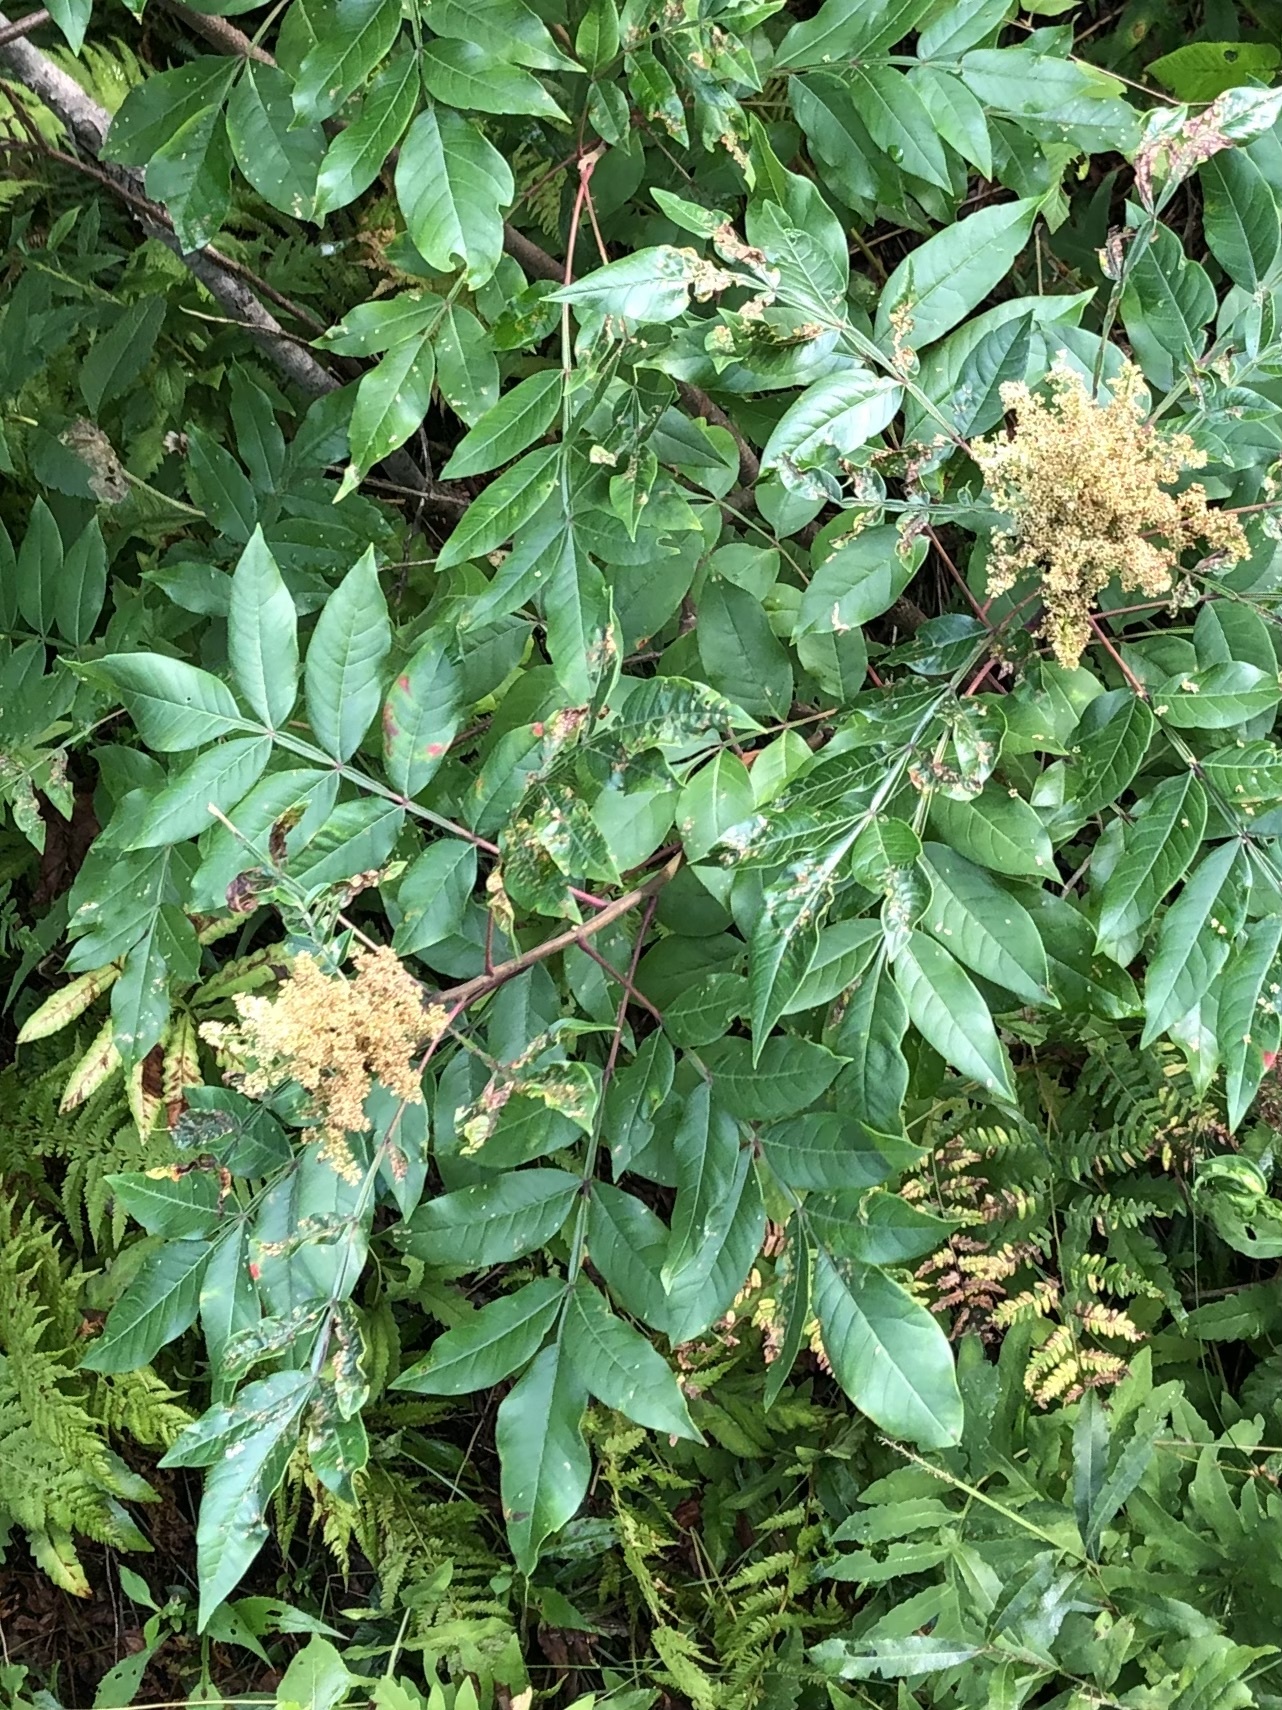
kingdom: Plantae
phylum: Tracheophyta
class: Magnoliopsida
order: Sapindales
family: Anacardiaceae
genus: Rhus
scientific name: Rhus copallina
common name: Shining sumac
